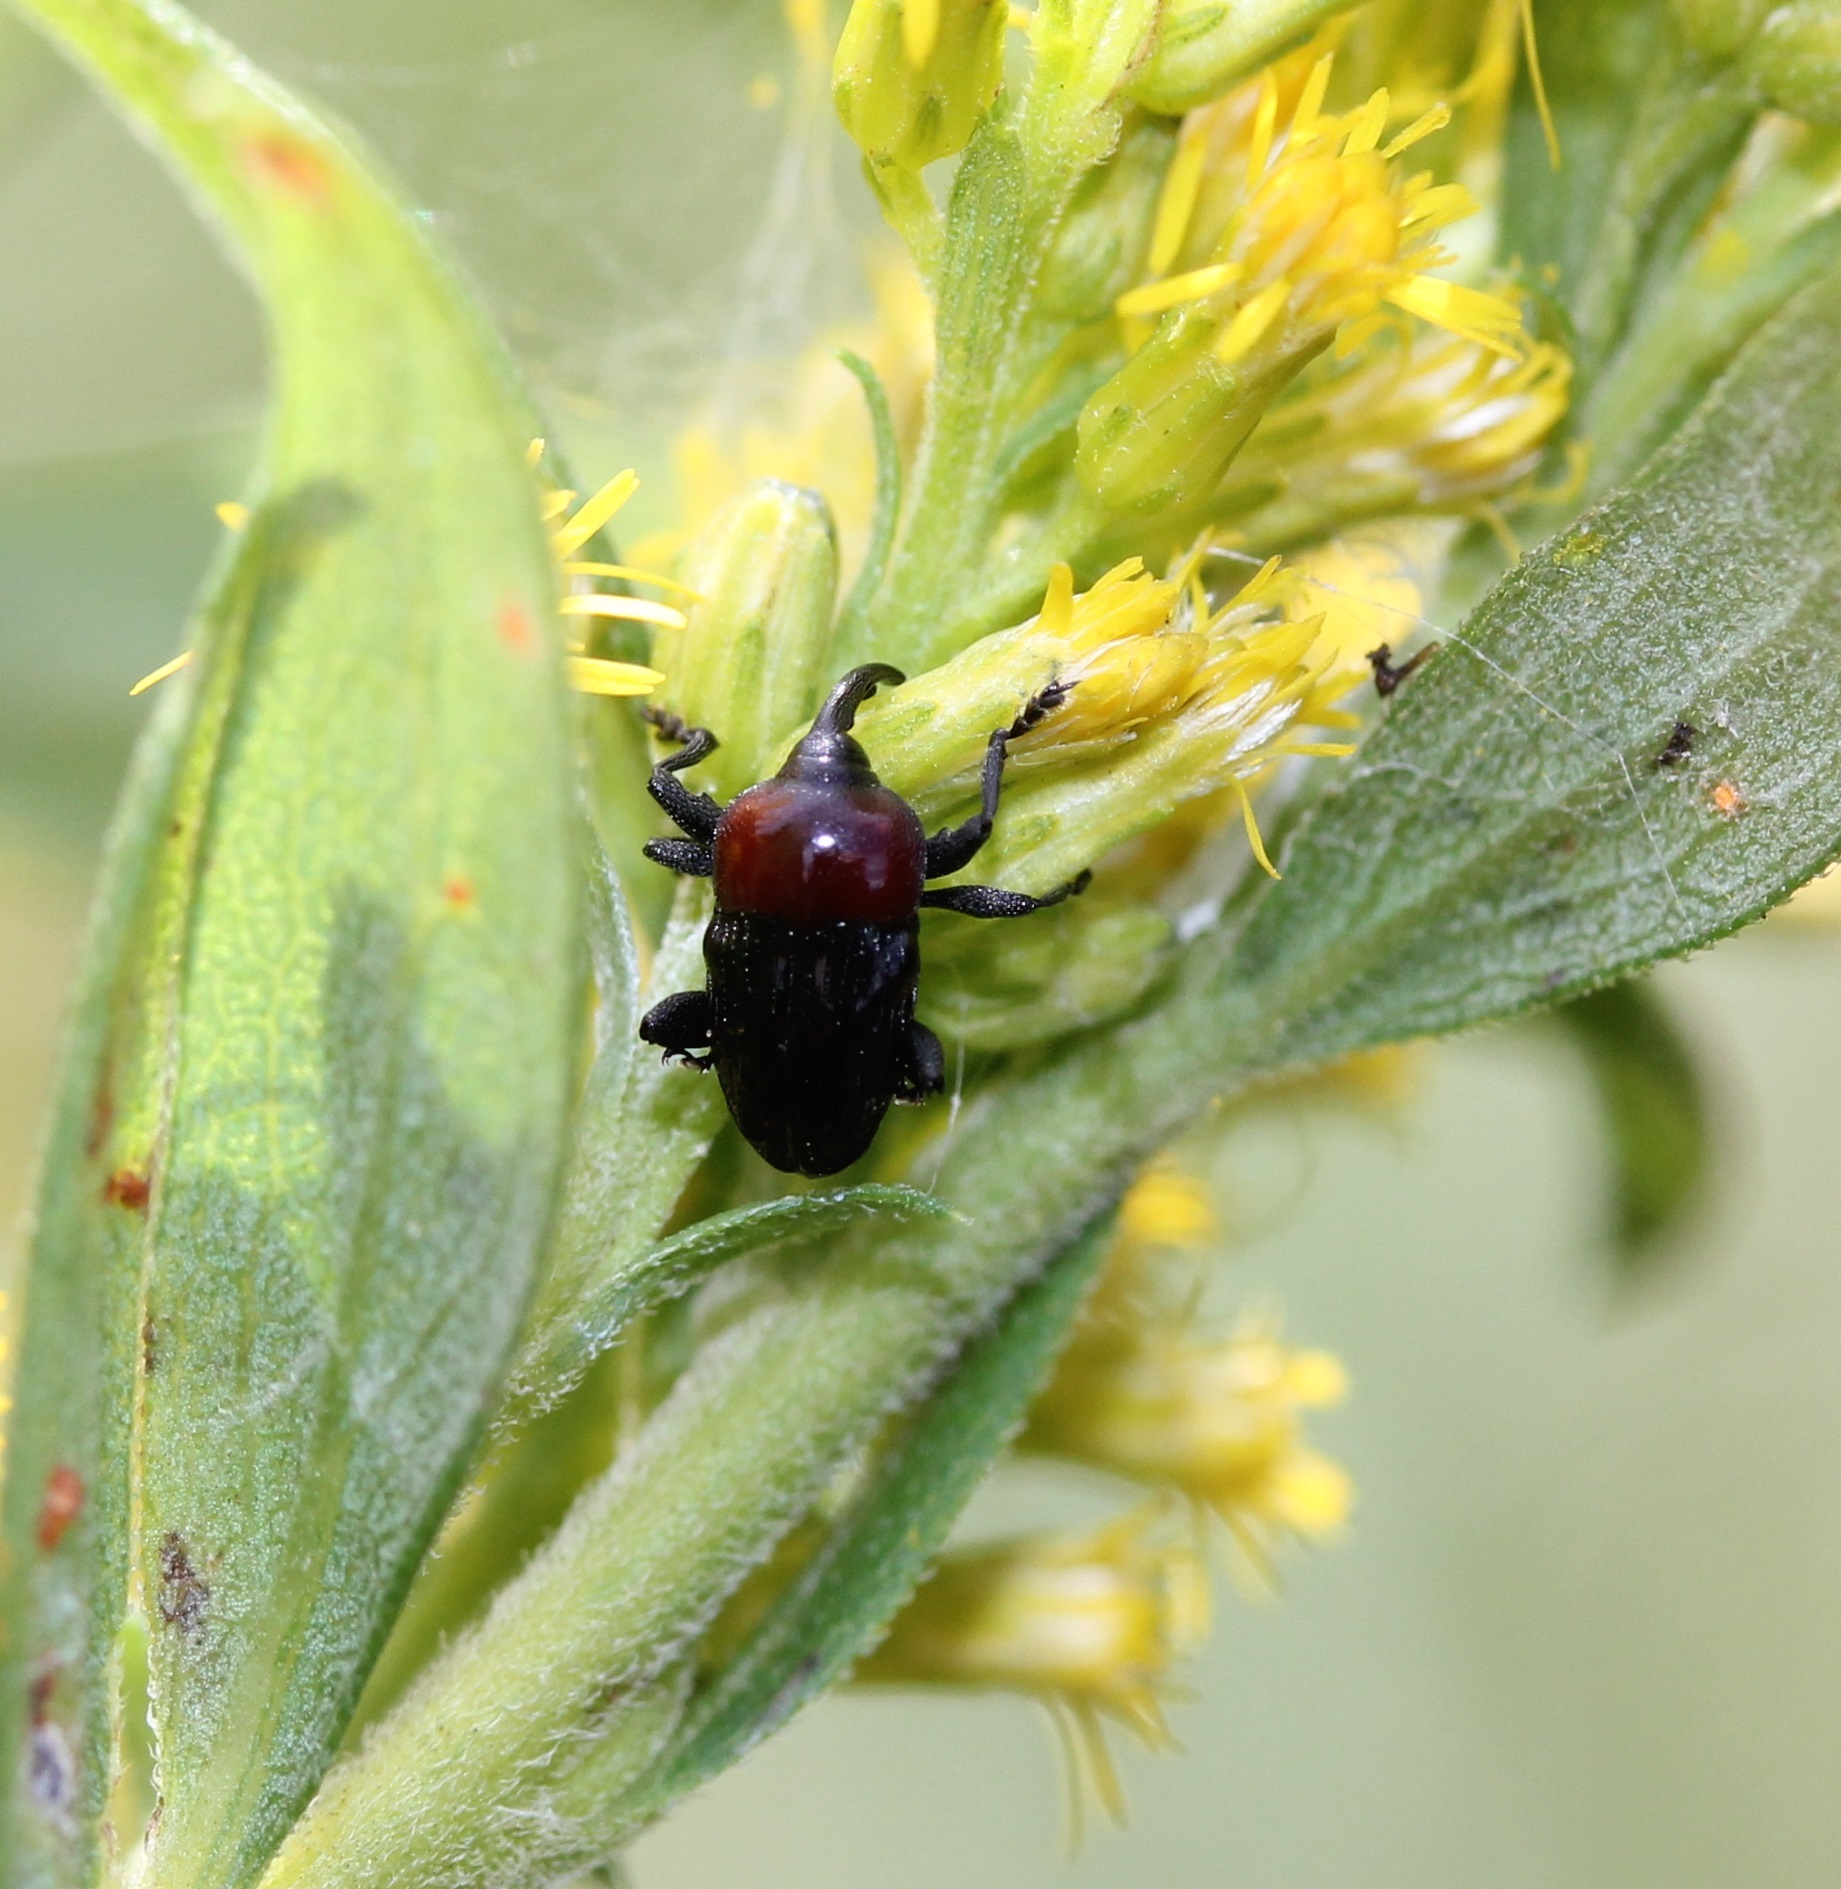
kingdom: Animalia
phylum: Arthropoda
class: Insecta
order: Coleoptera
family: Curculionidae
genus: Madarellus
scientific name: Madarellus undulatus
